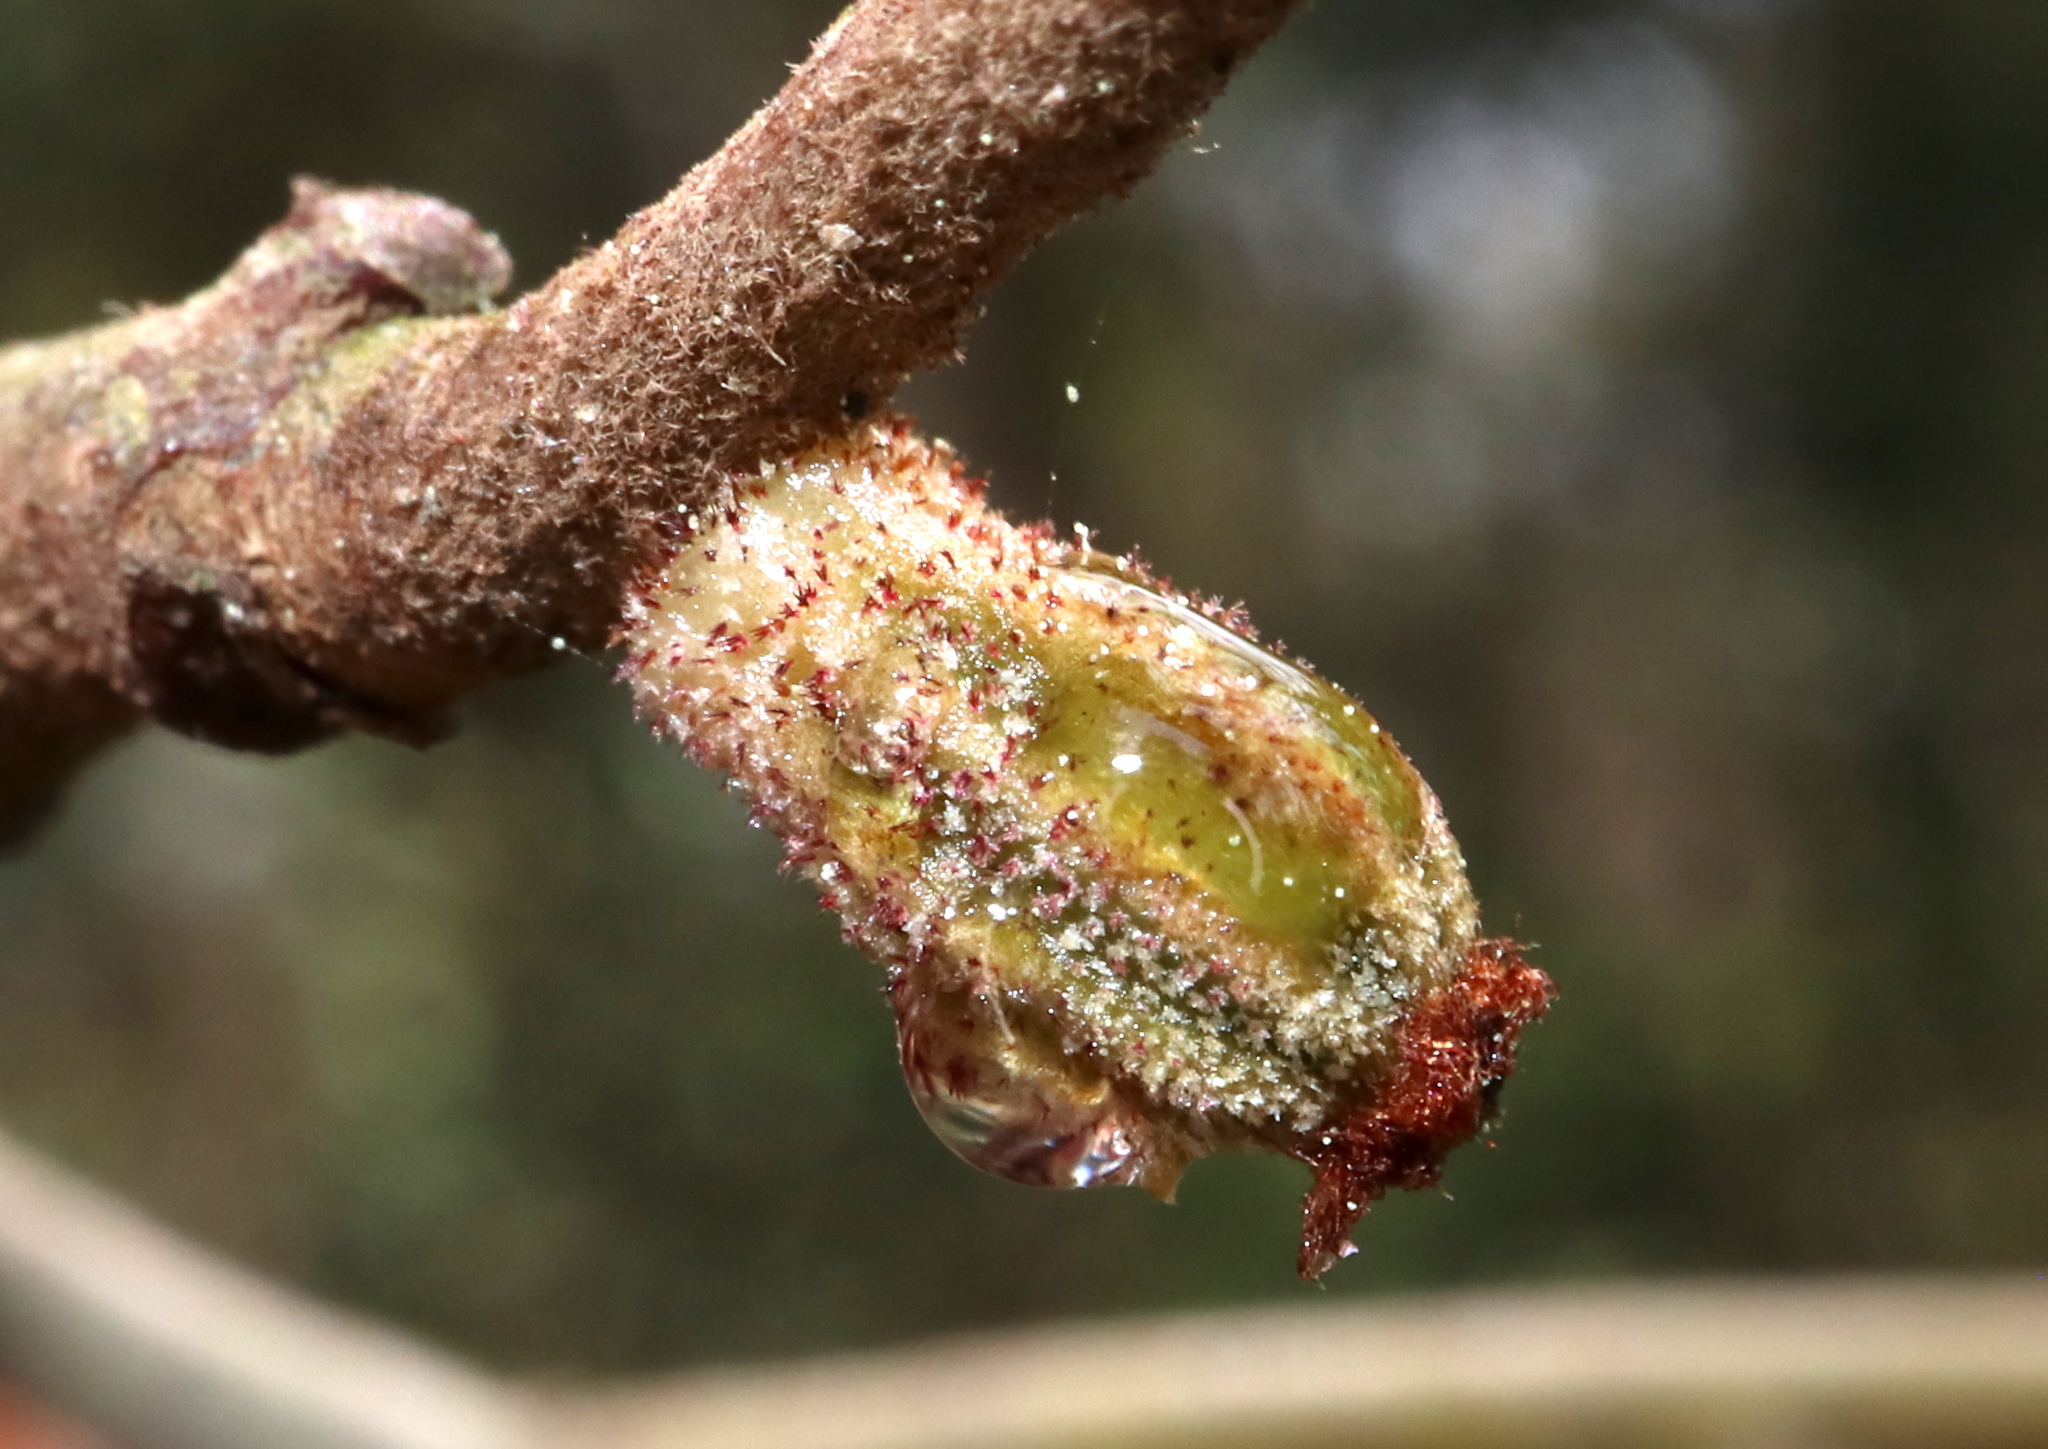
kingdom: Animalia
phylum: Arthropoda
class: Insecta
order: Hymenoptera
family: Cynipidae
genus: Callirhytis
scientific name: Callirhytis
